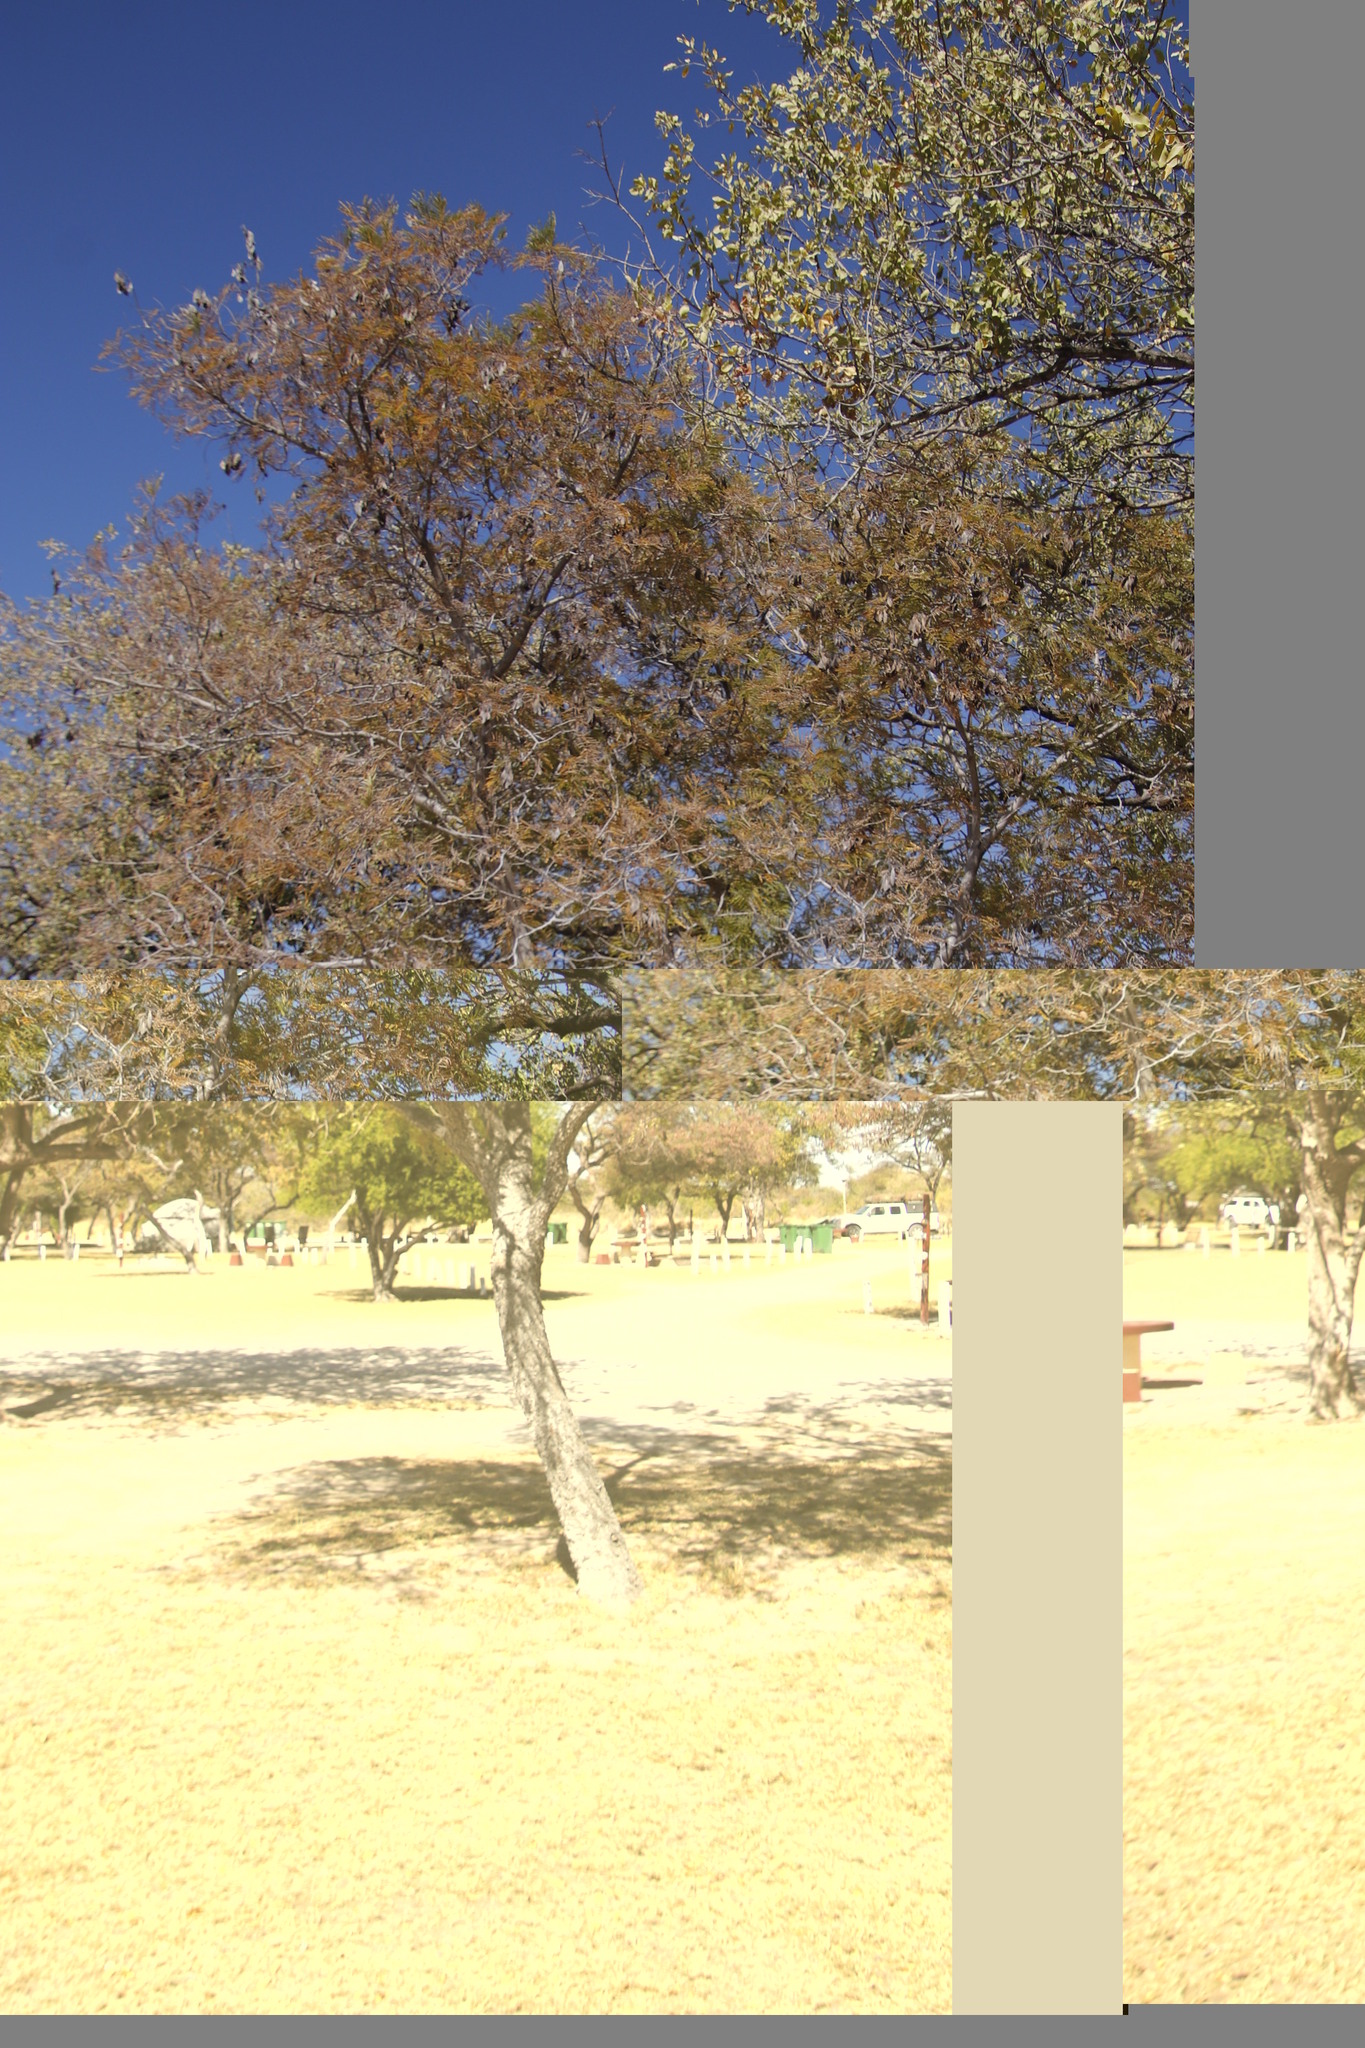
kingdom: Plantae
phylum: Tracheophyta
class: Magnoliopsida
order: Fabales
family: Fabaceae
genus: Peltophorum
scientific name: Peltophorum africanum
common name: African black wattle
